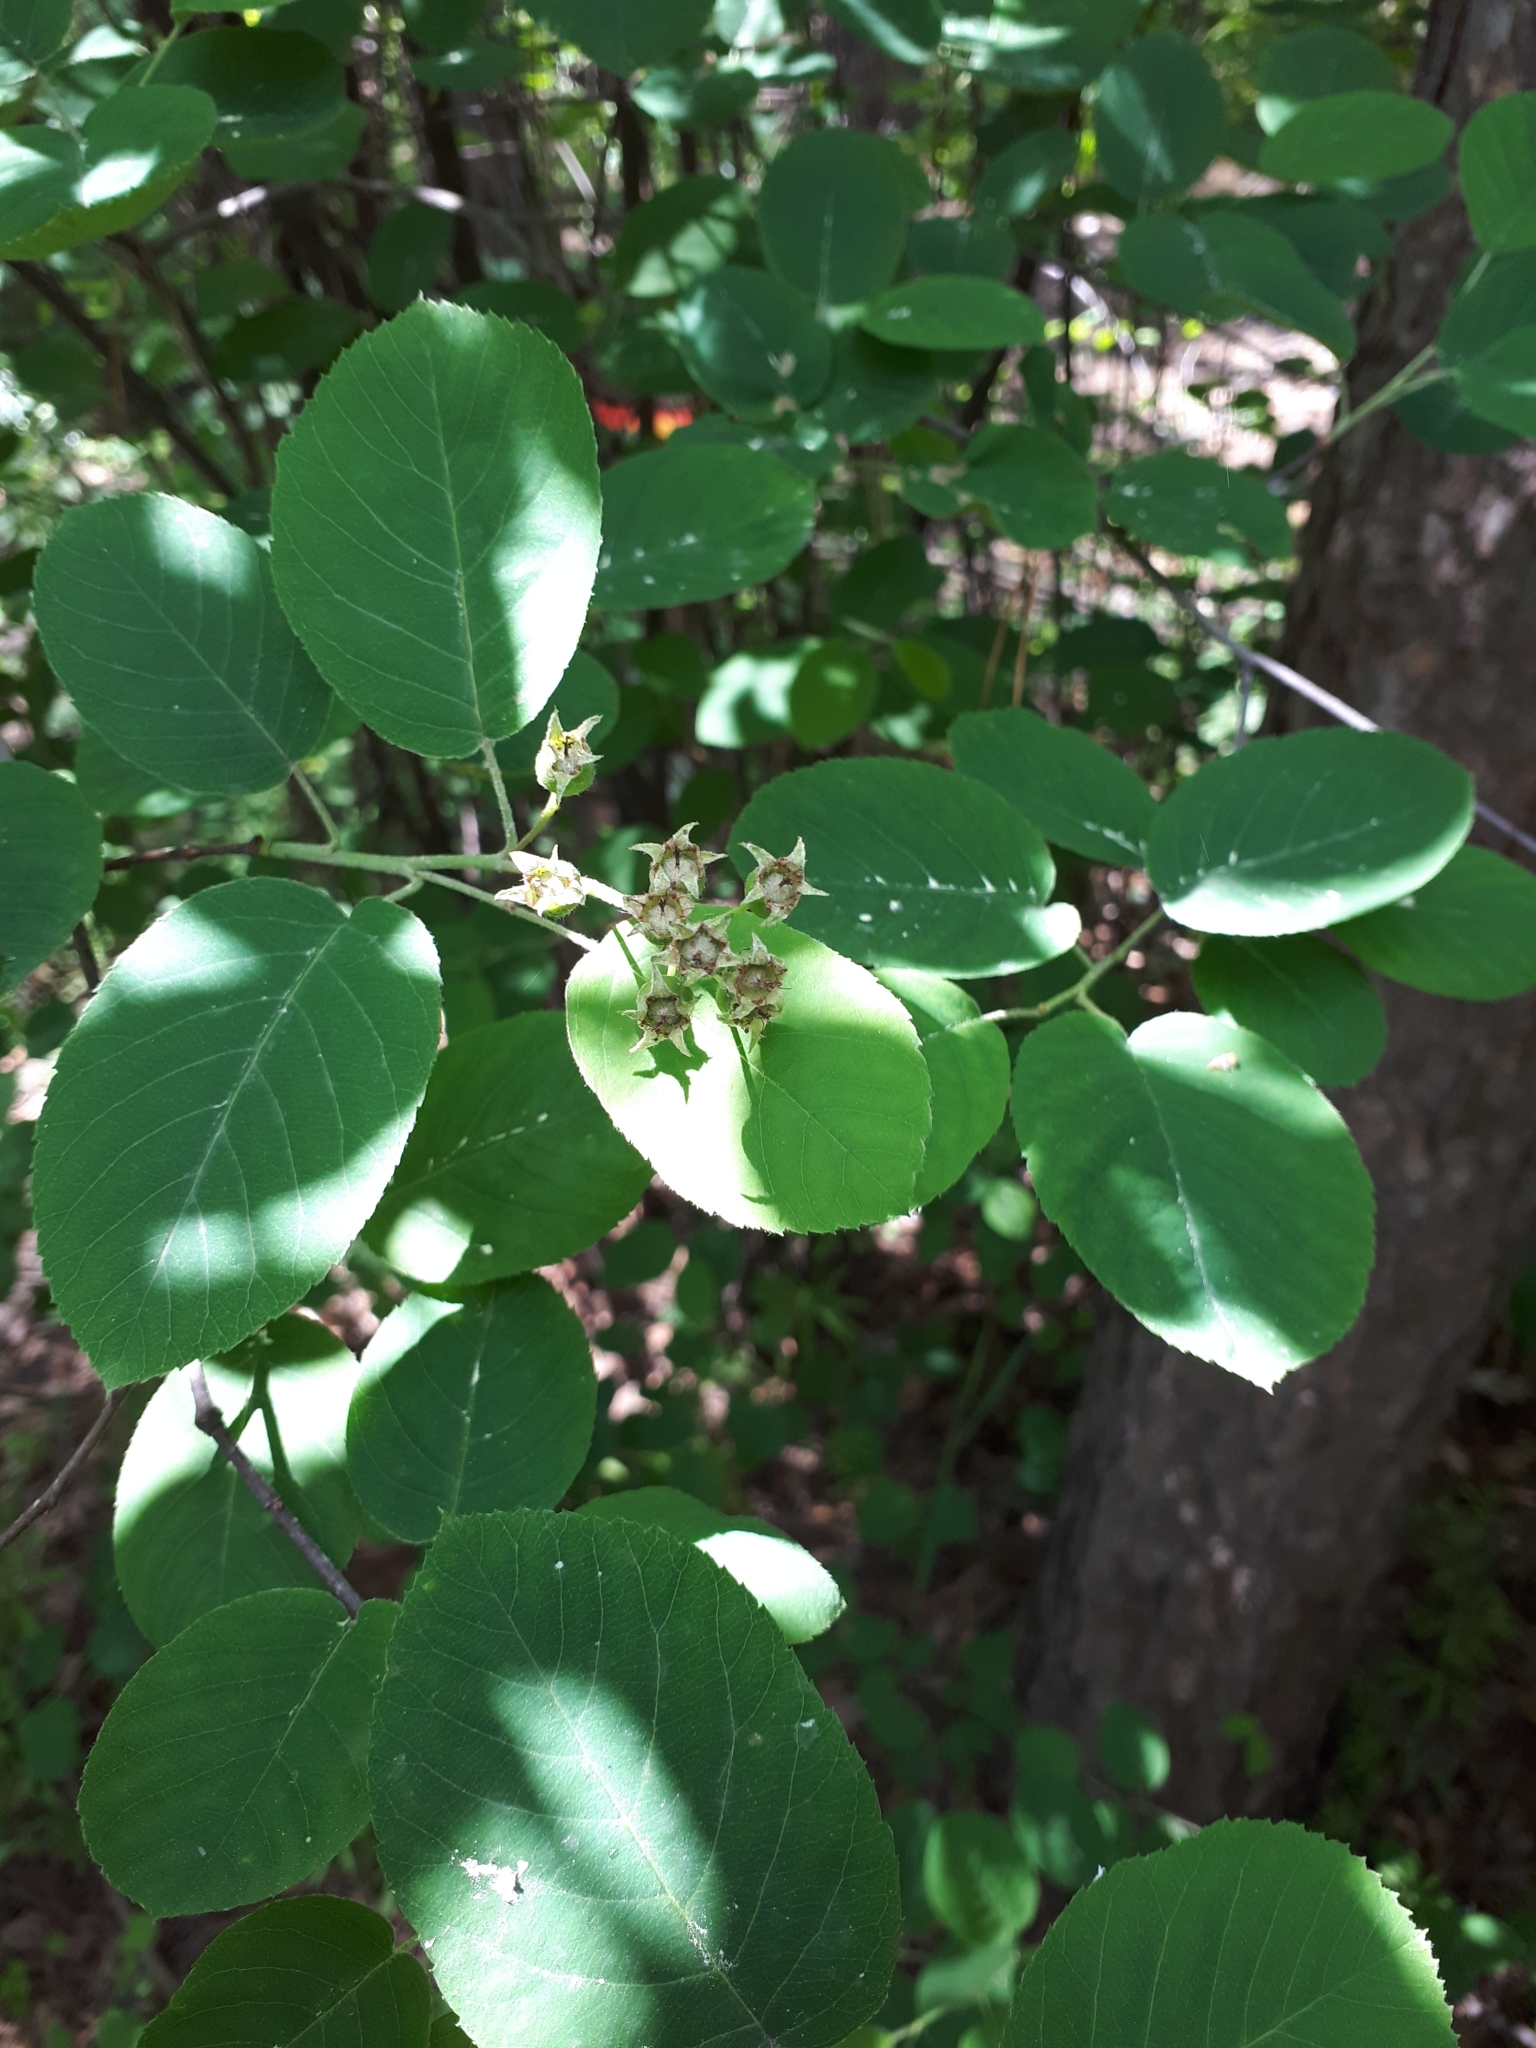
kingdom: Plantae
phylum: Tracheophyta
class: Magnoliopsida
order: Rosales
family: Rosaceae
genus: Amelanchier
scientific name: Amelanchier
